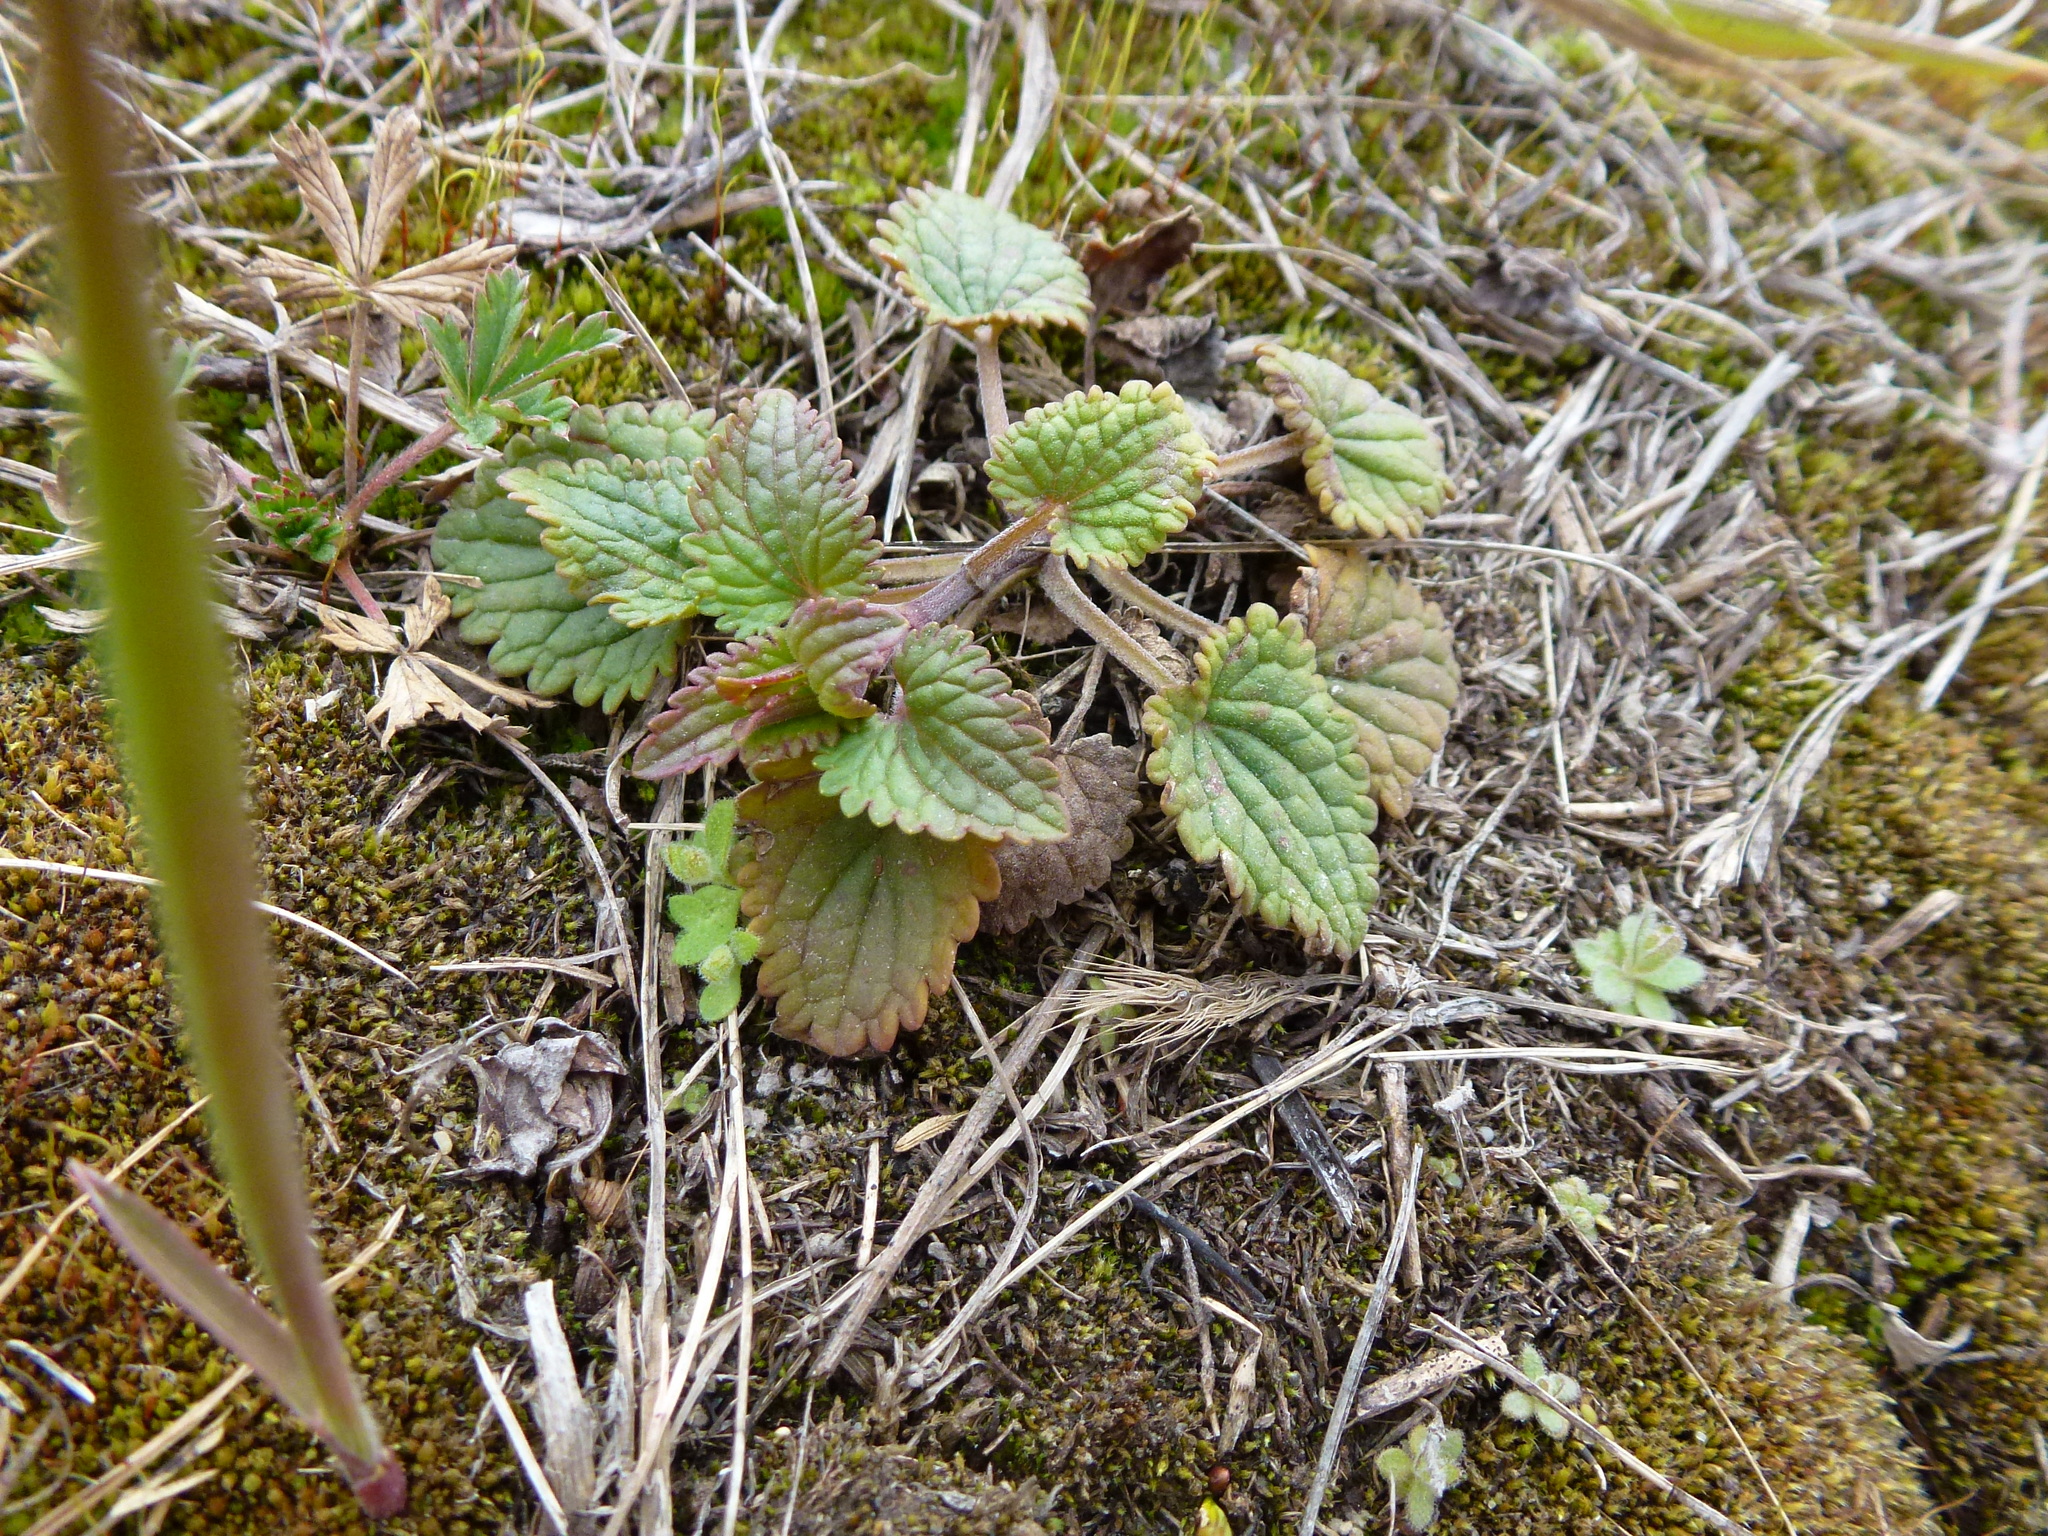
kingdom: Plantae
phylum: Tracheophyta
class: Magnoliopsida
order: Lamiales
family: Lamiaceae
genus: Dracocephalum
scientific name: Dracocephalum thymiflorum
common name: Thymeleaf dragonhead
